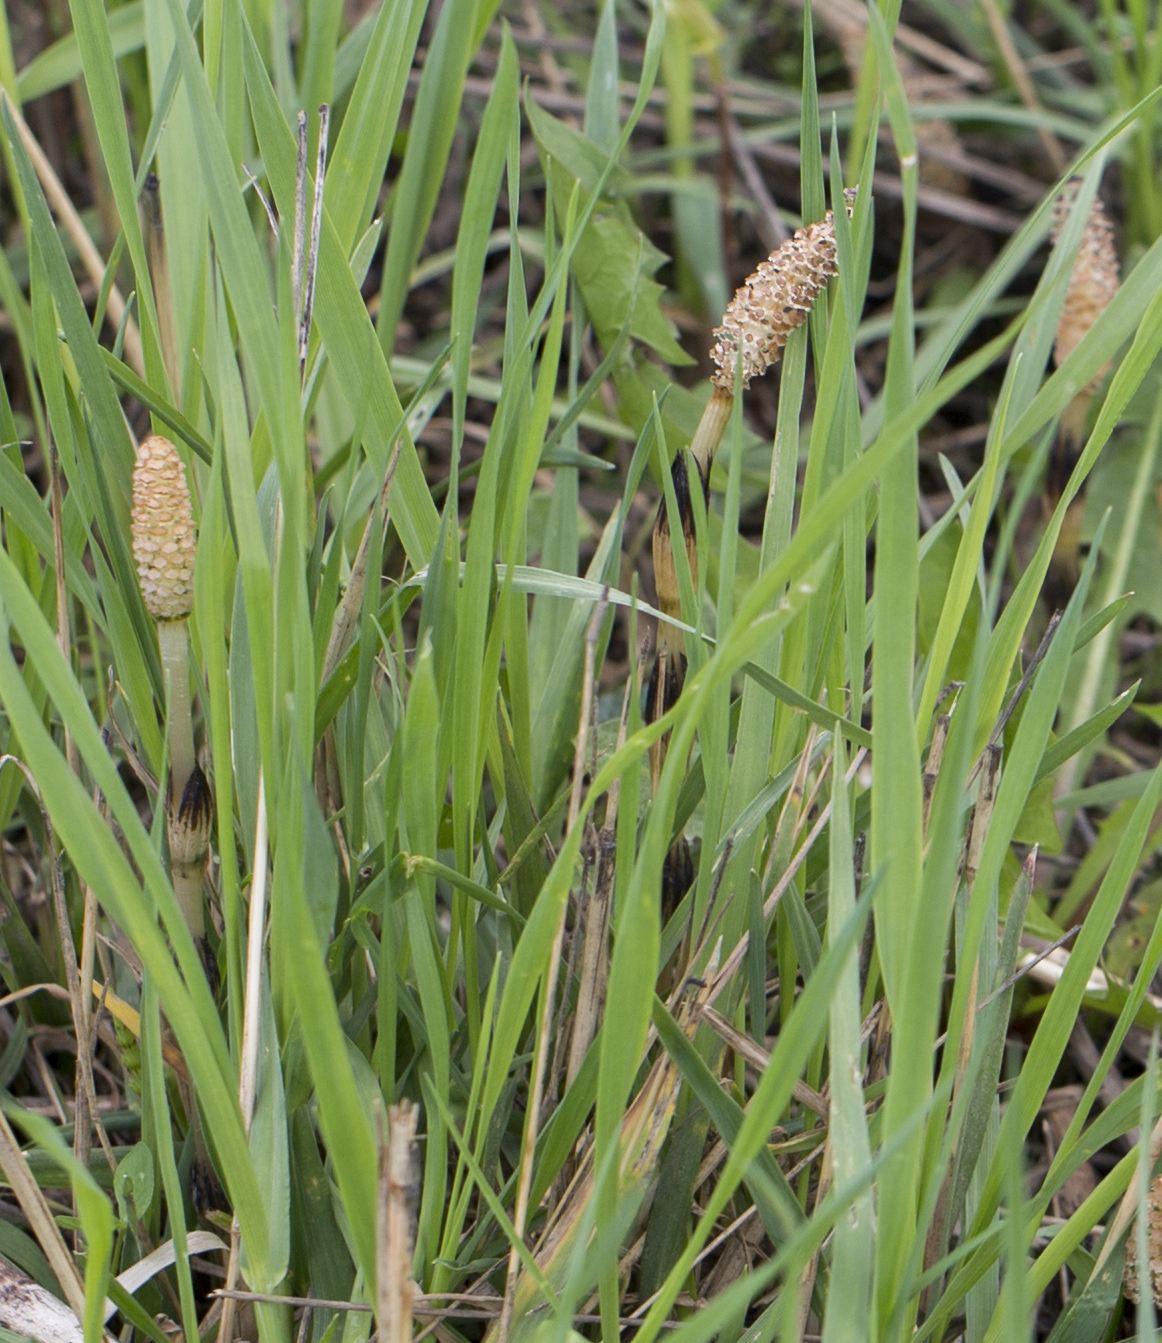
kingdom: Plantae
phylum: Tracheophyta
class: Polypodiopsida
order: Equisetales
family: Equisetaceae
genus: Equisetum
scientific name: Equisetum arvense
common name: Field horsetail
